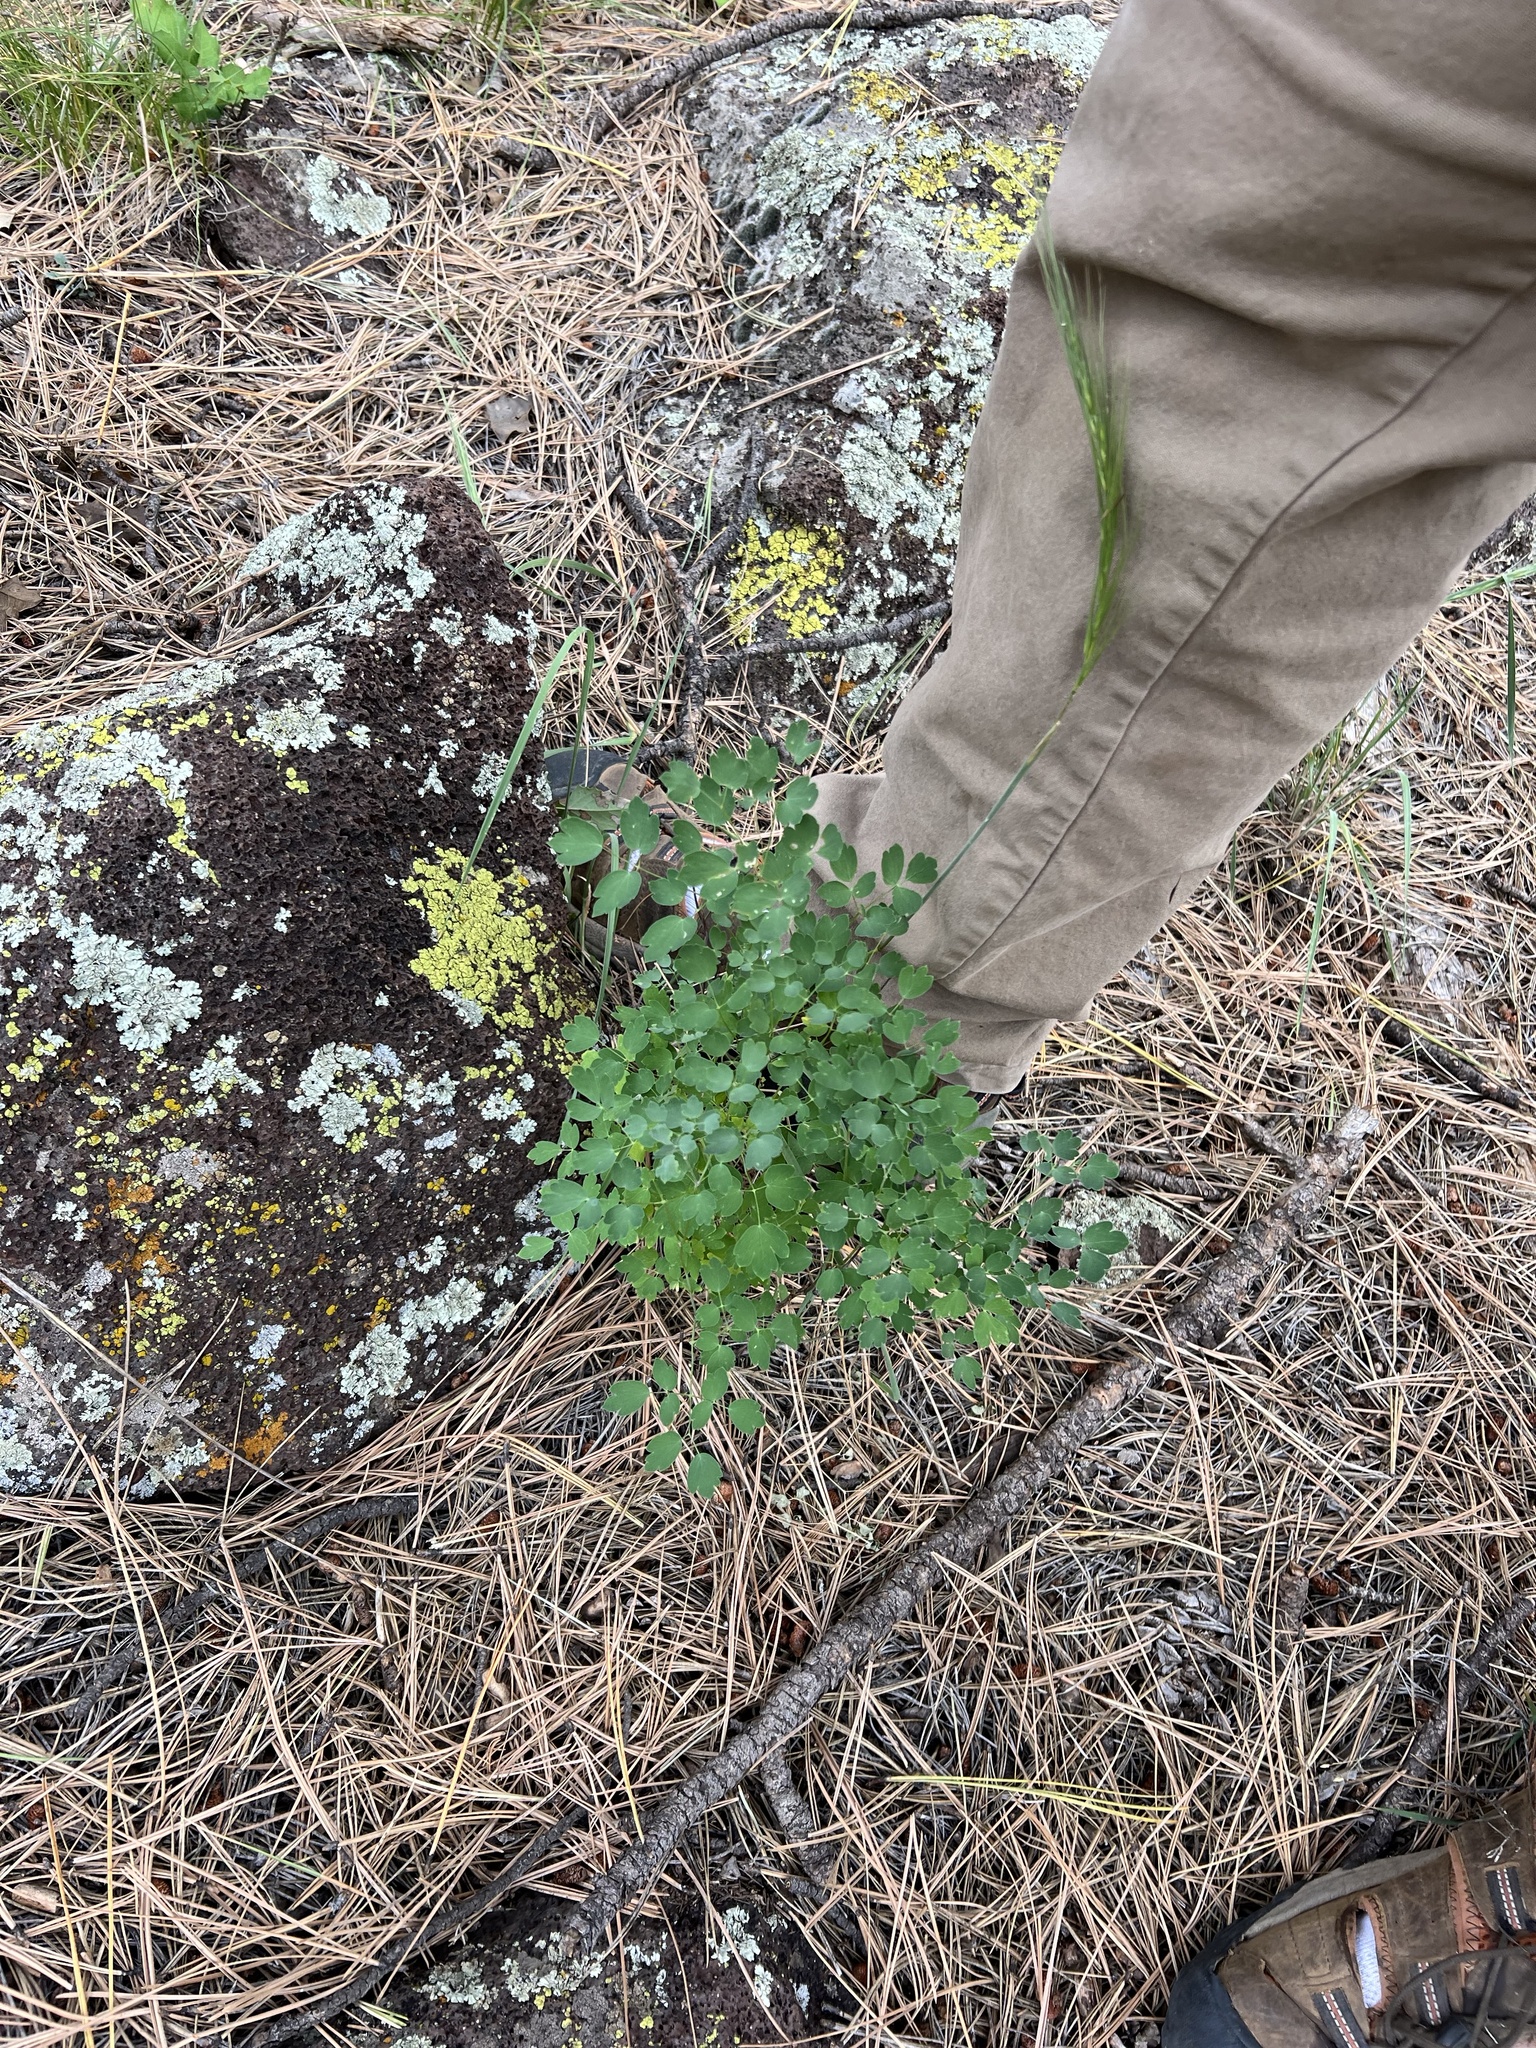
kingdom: Plantae
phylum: Tracheophyta
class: Magnoliopsida
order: Ranunculales
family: Ranunculaceae
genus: Thalictrum
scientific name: Thalictrum fendleri
